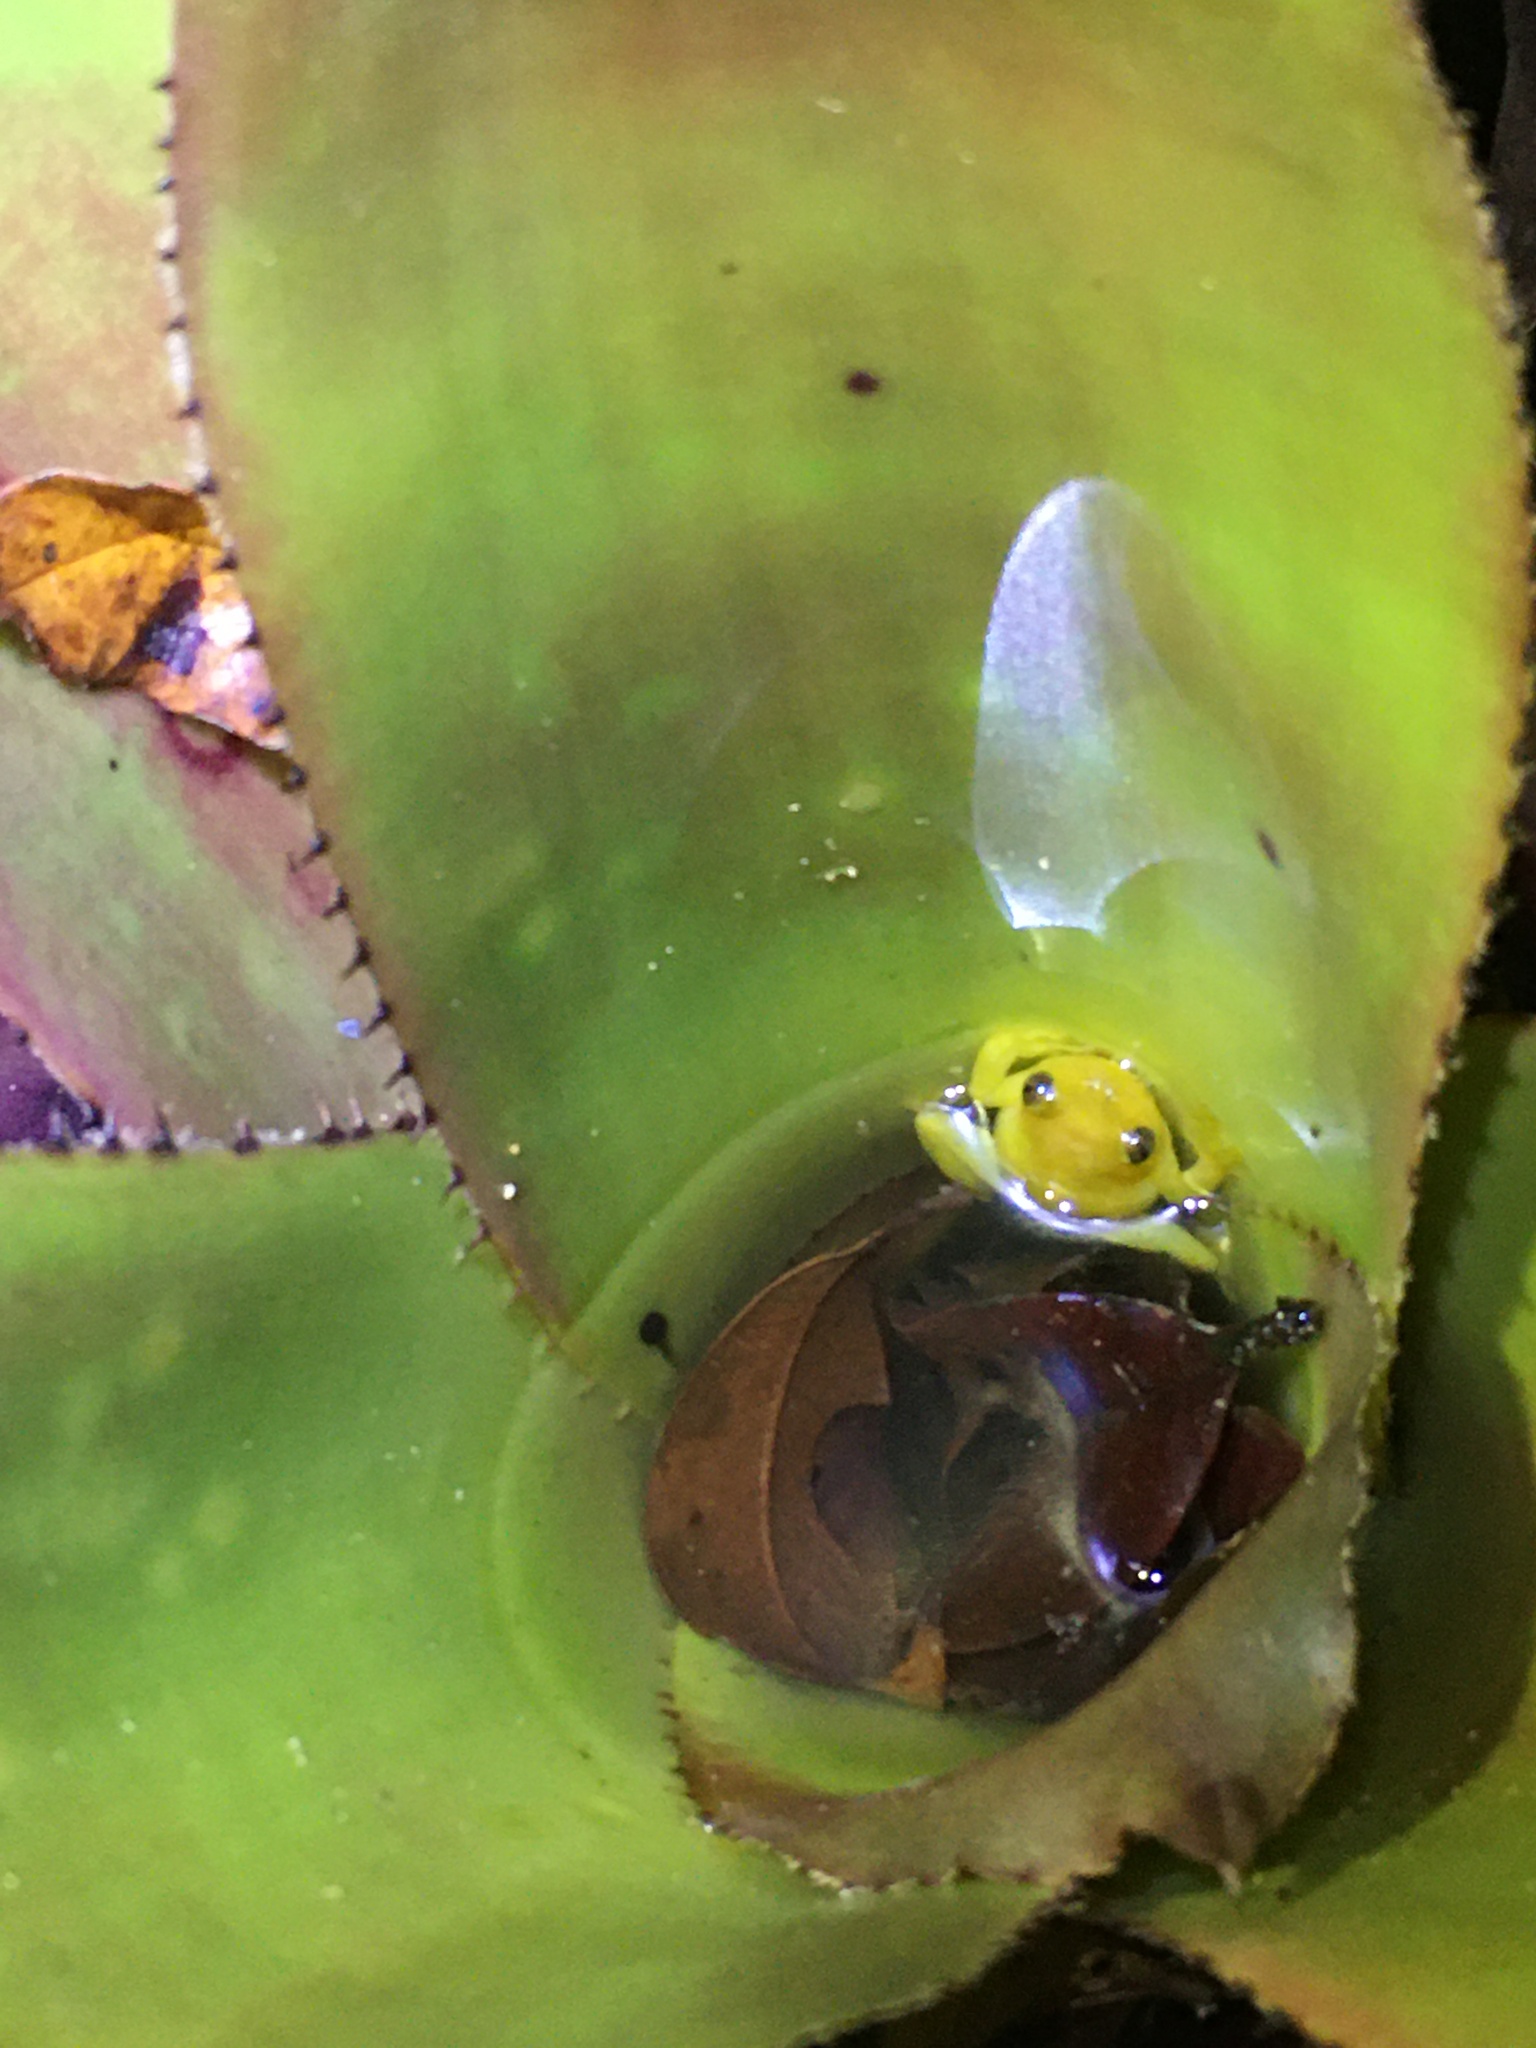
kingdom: Animalia
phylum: Chordata
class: Amphibia
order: Anura
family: Hylidae
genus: Phyllodytes
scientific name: Phyllodytes edelmoi
